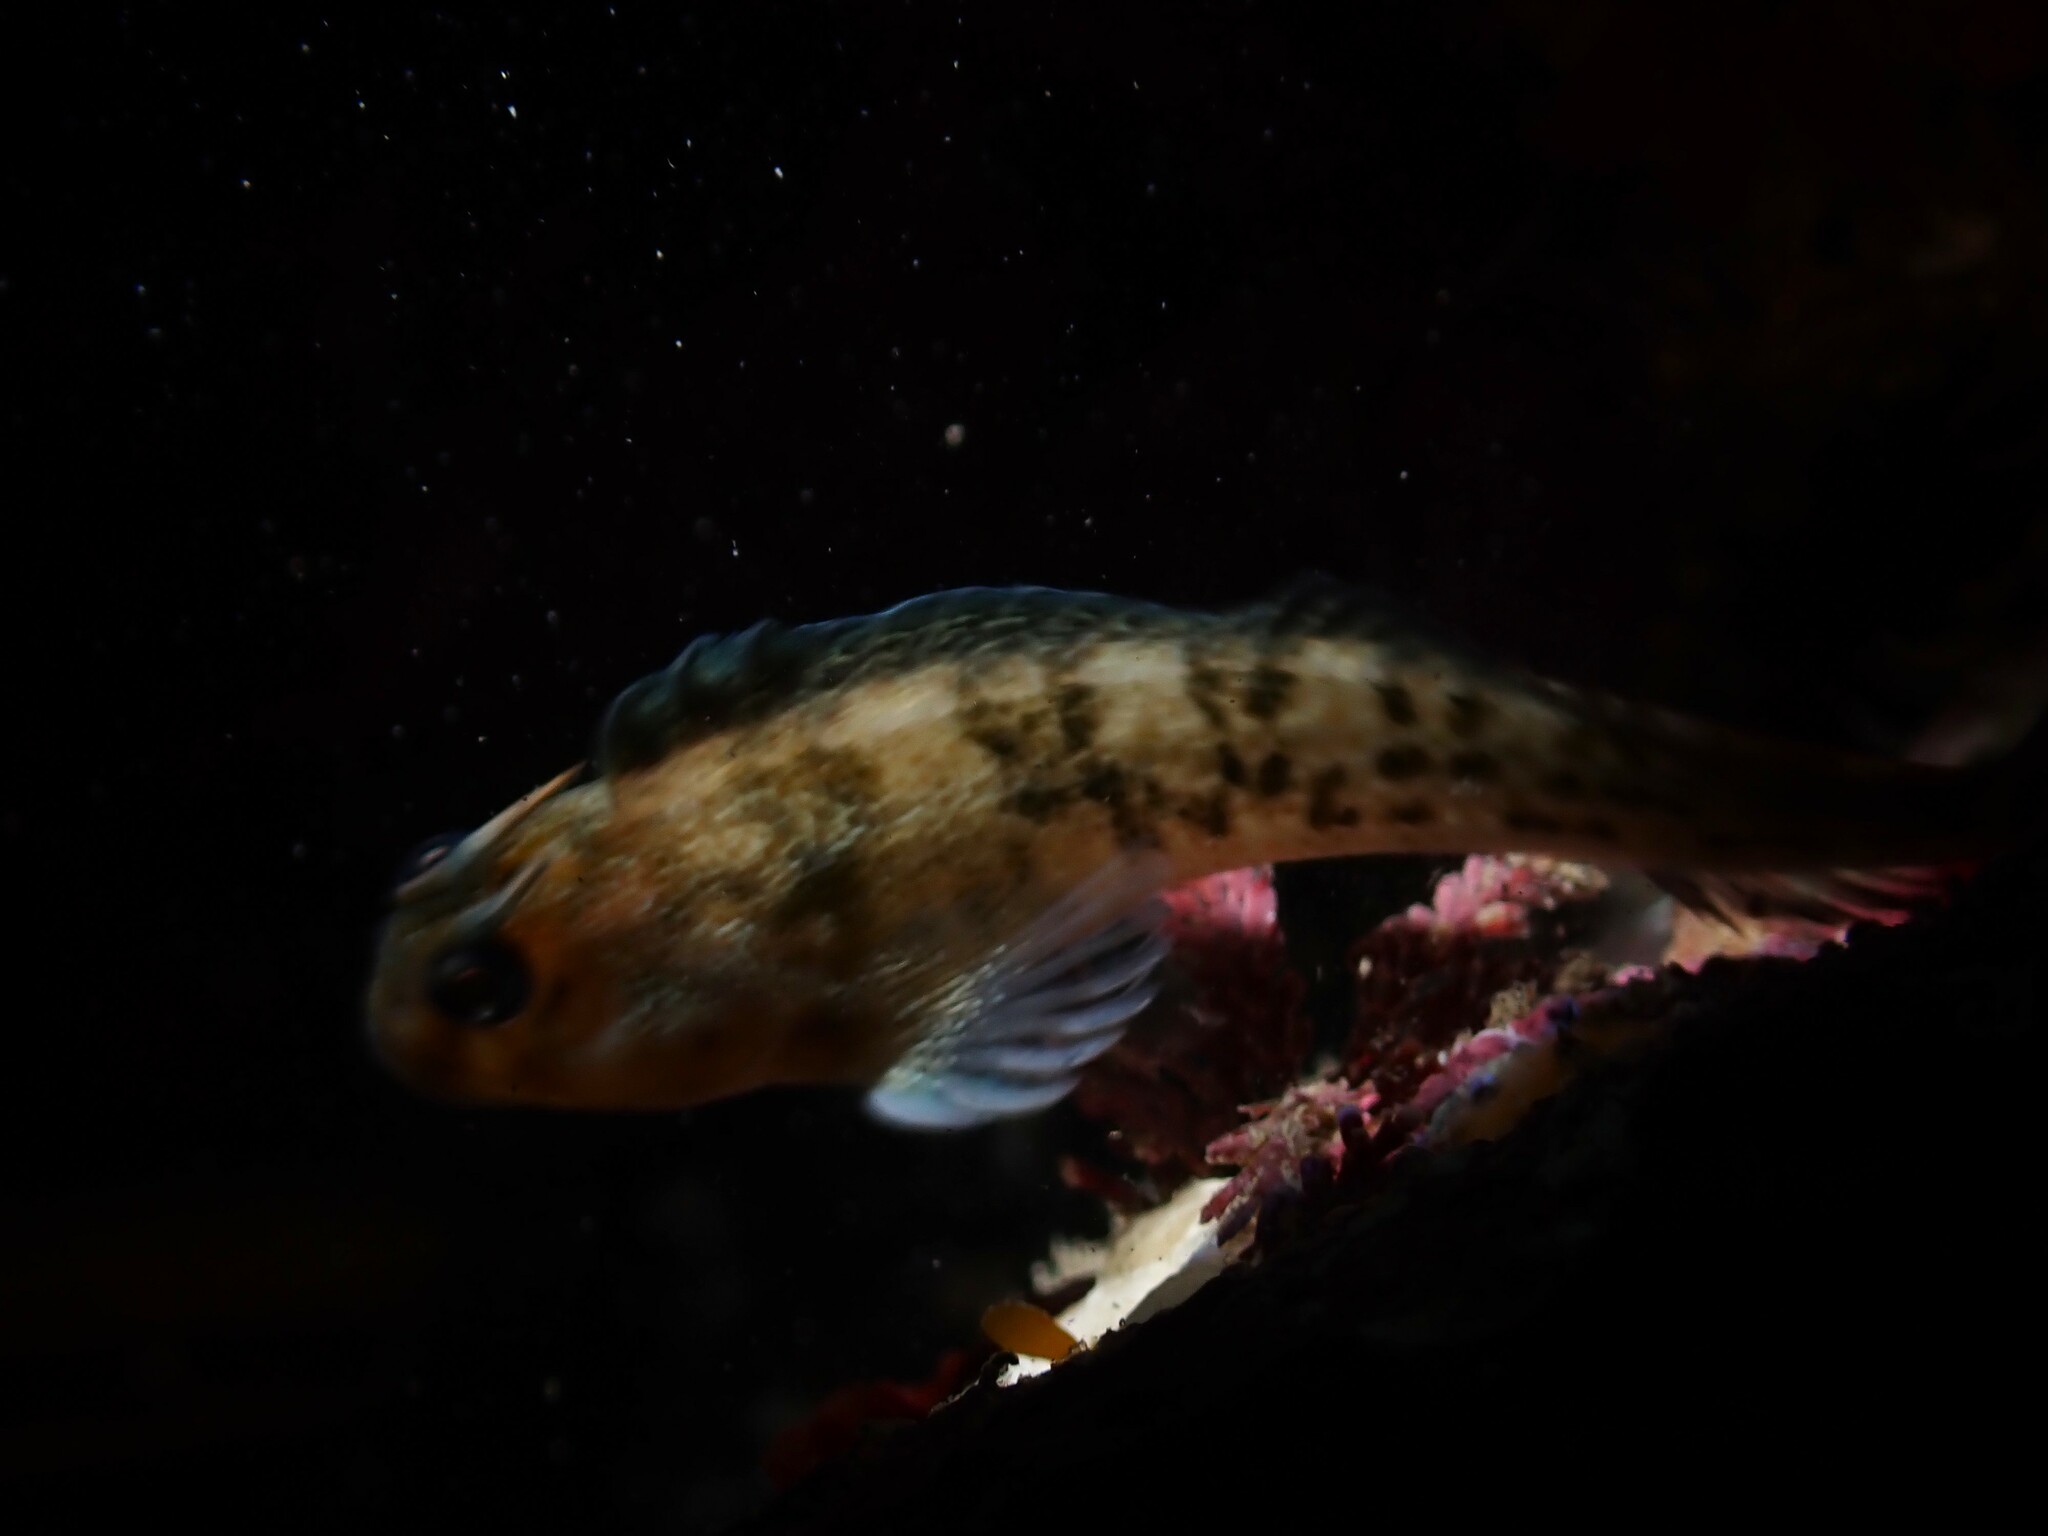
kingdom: Animalia
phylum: Chordata
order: Perciformes
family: Blenniidae
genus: Parablennius
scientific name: Parablennius tasmanianus
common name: Tasmanian blenny
